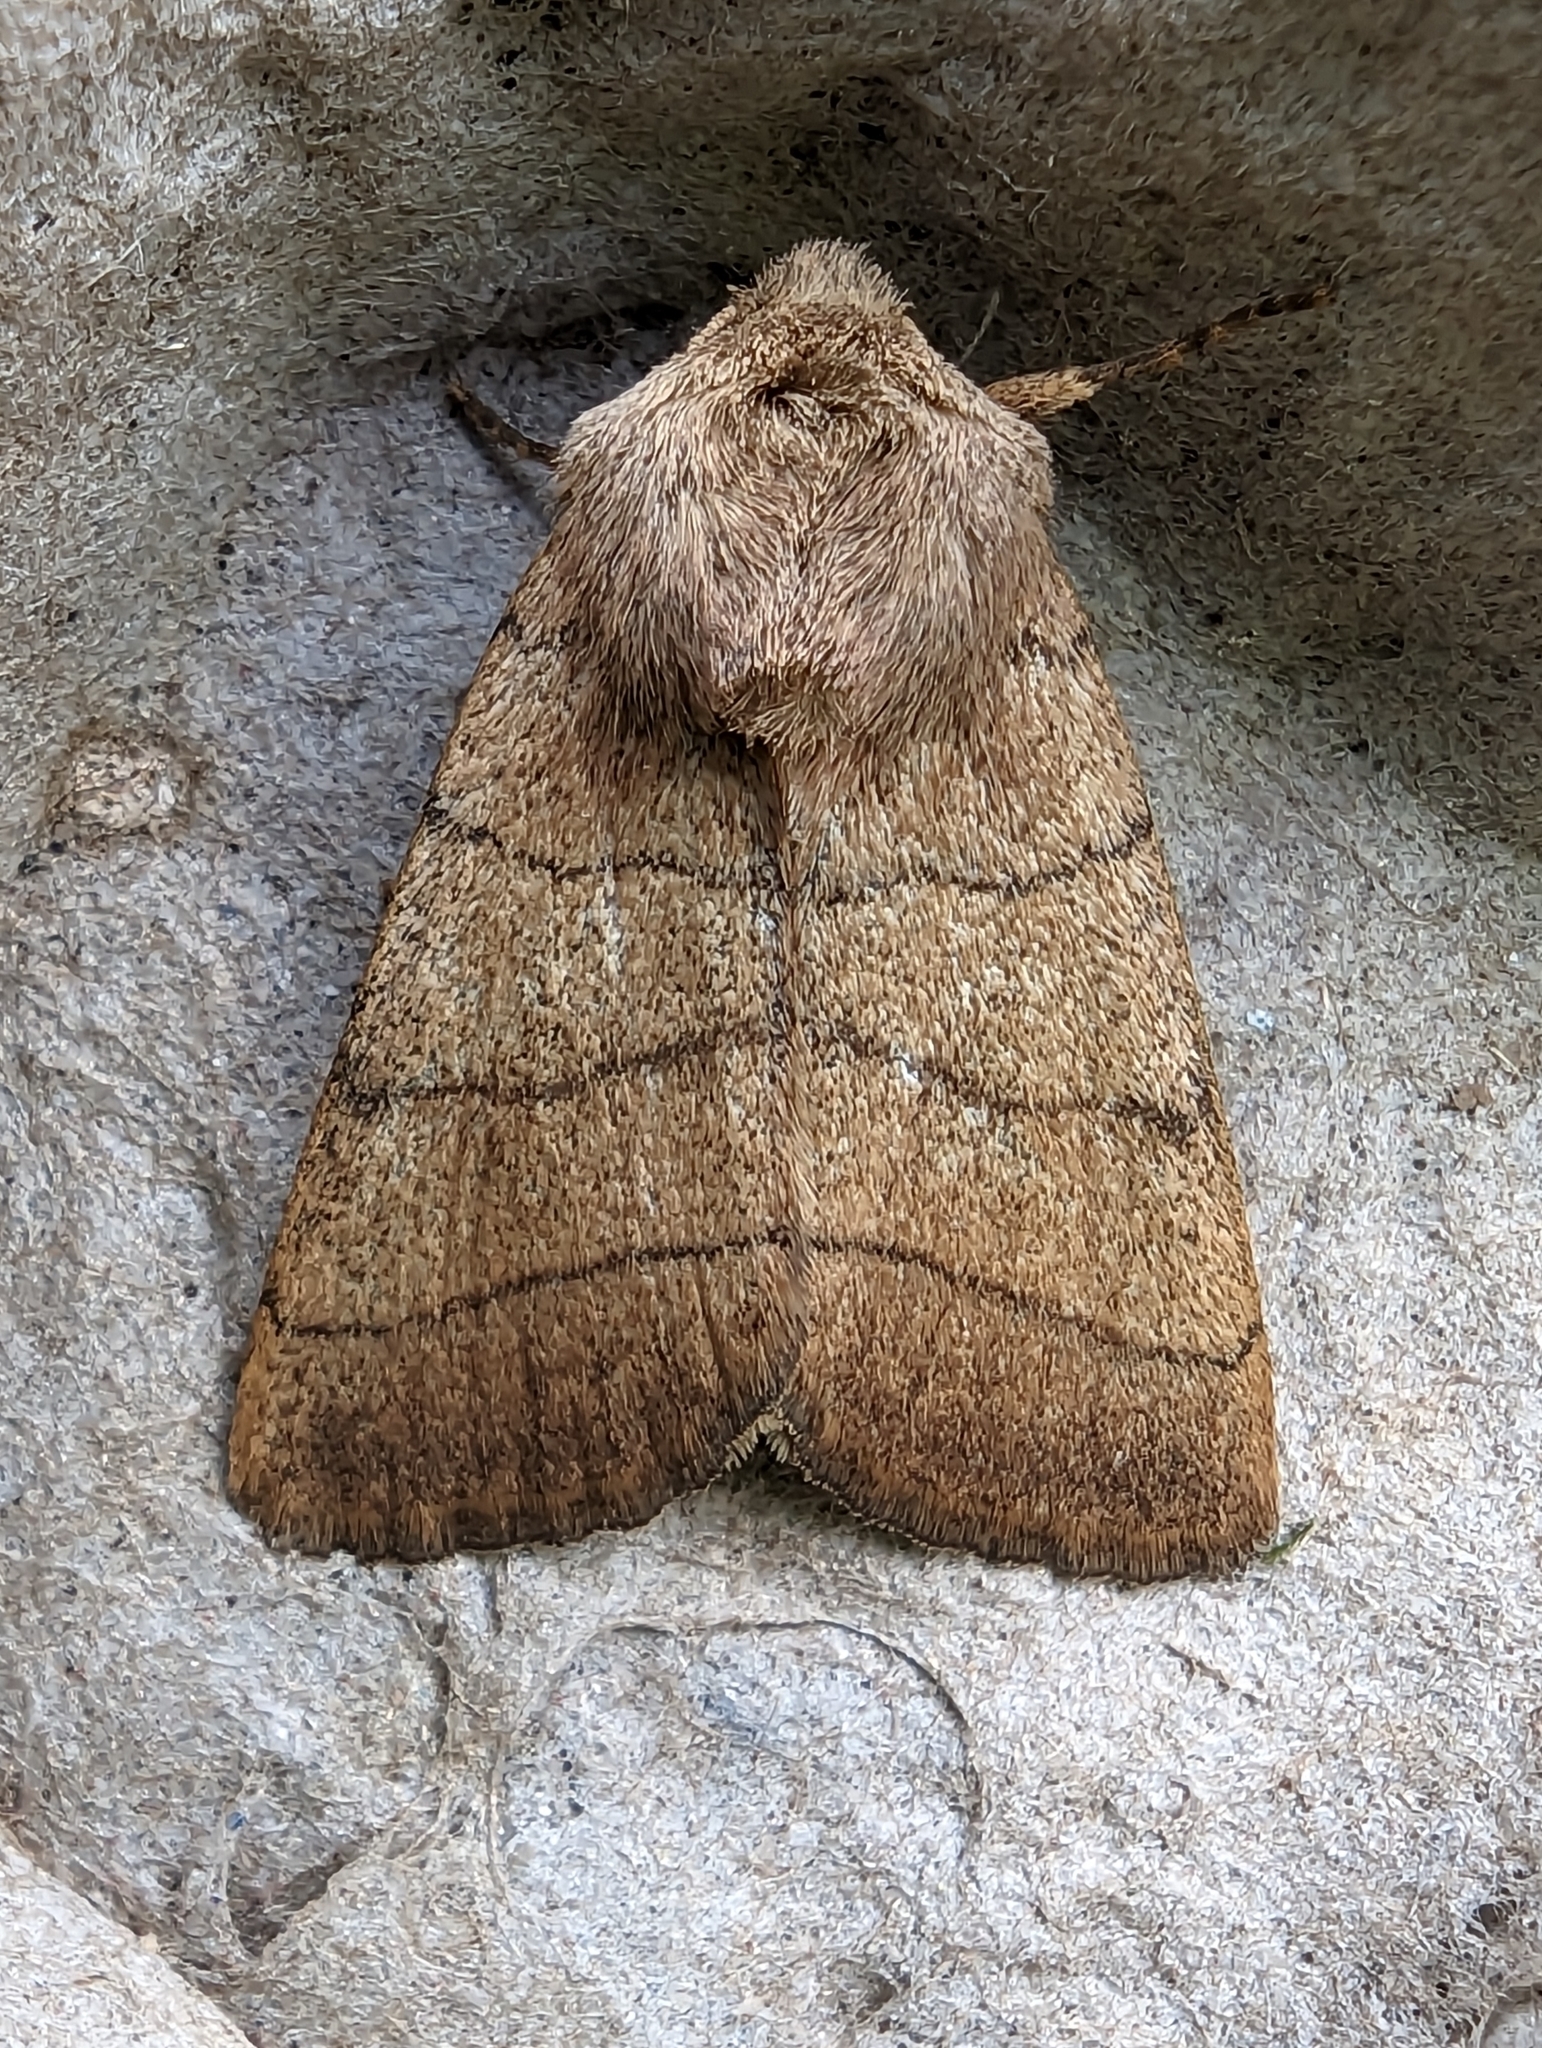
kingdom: Animalia
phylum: Arthropoda
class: Insecta
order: Lepidoptera
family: Noctuidae
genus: Charanyca
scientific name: Charanyca trigrammica
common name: Treble lines
